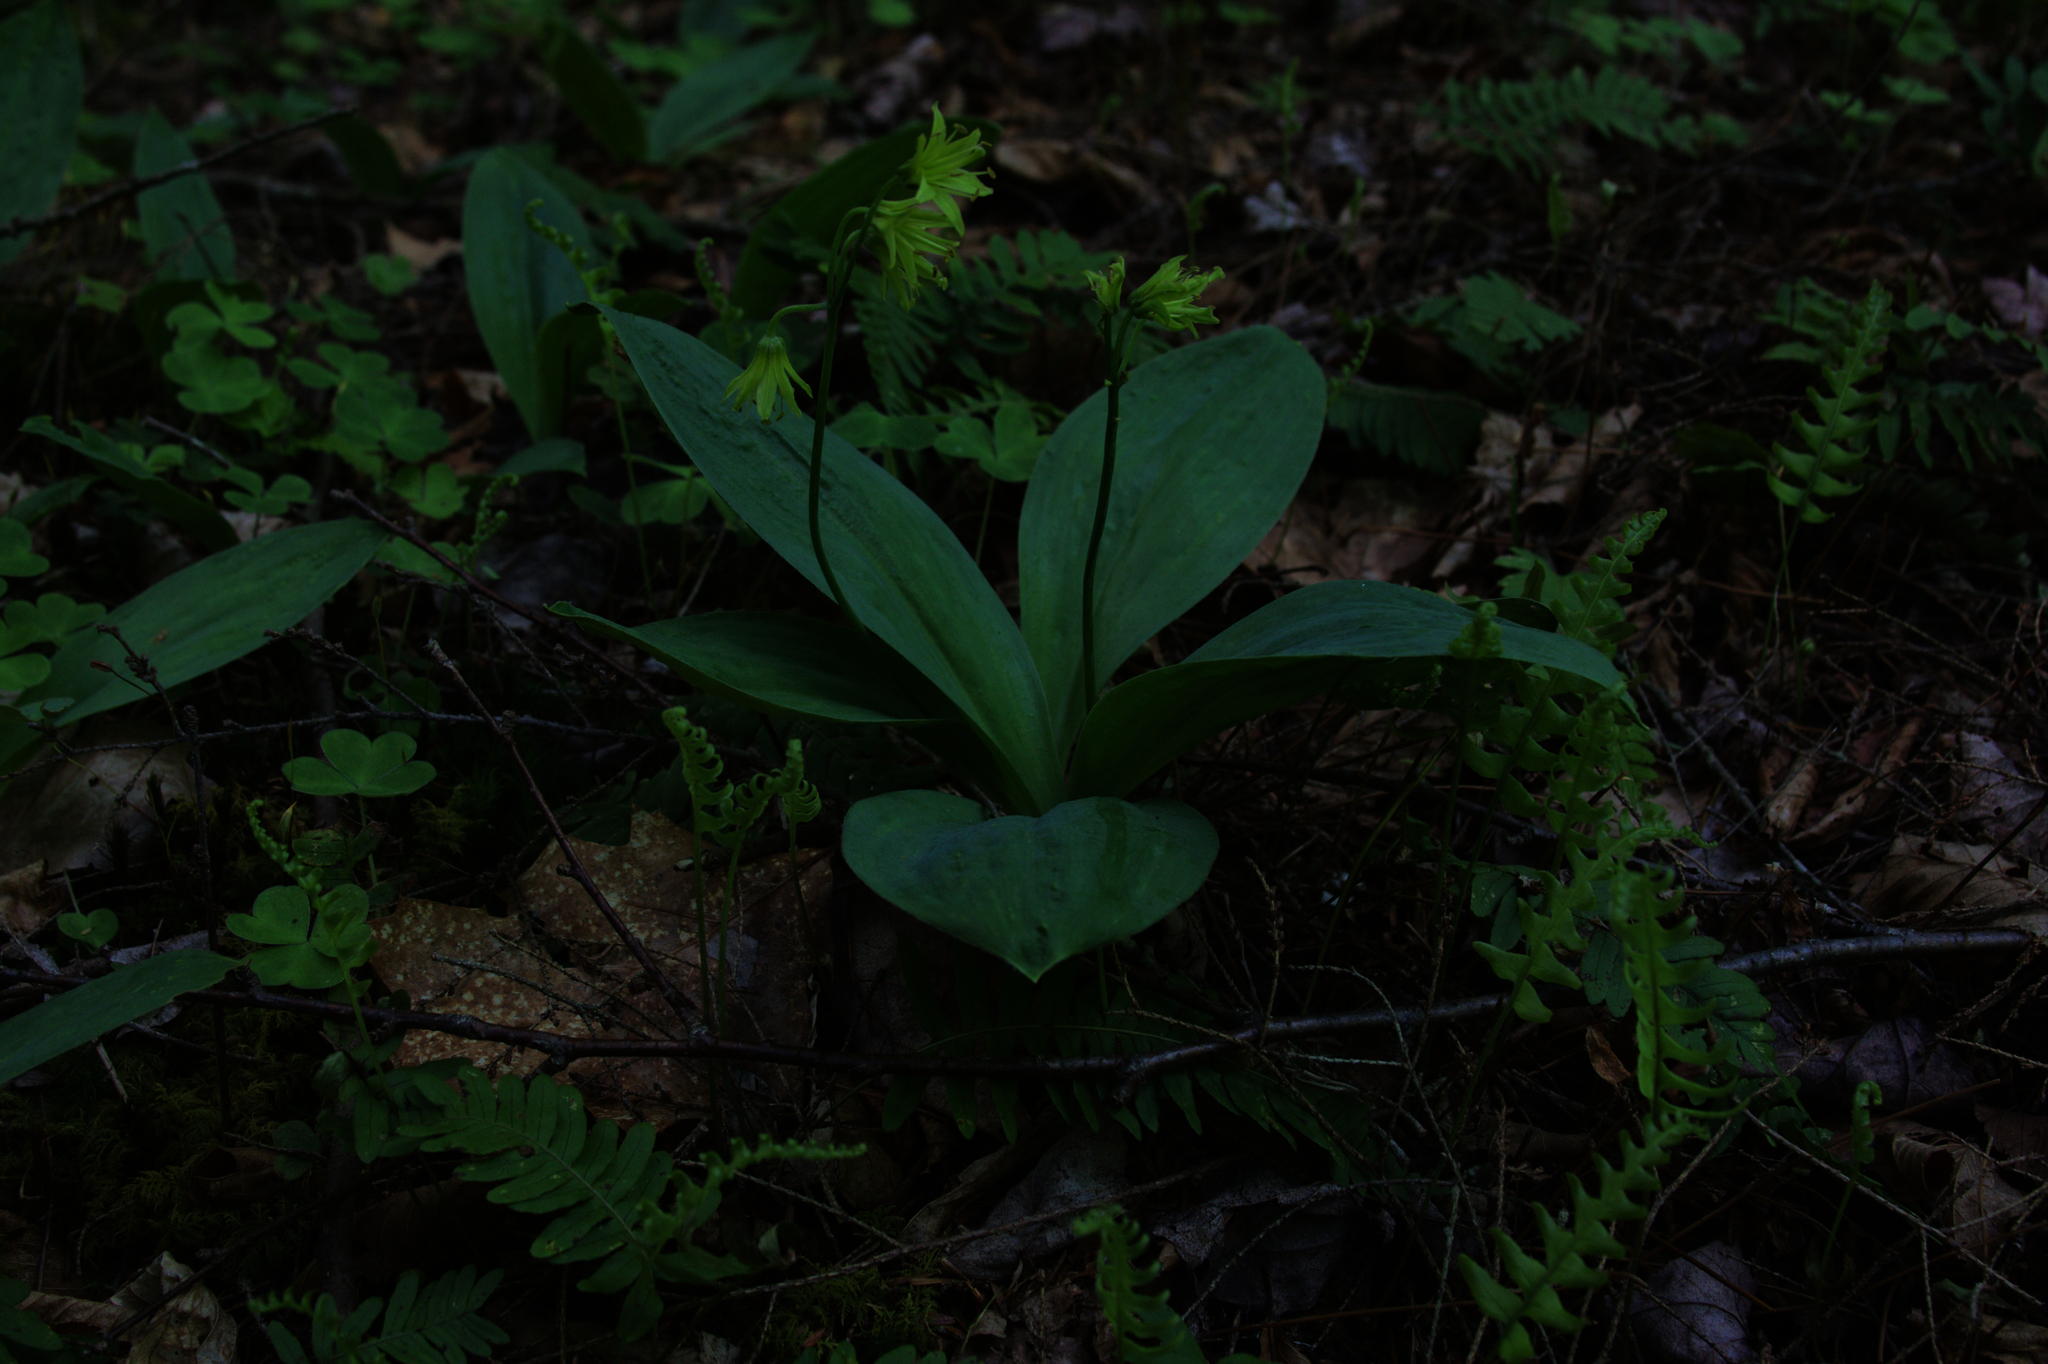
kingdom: Plantae
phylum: Tracheophyta
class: Liliopsida
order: Liliales
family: Liliaceae
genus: Clintonia
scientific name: Clintonia borealis
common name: Yellow clintonia
